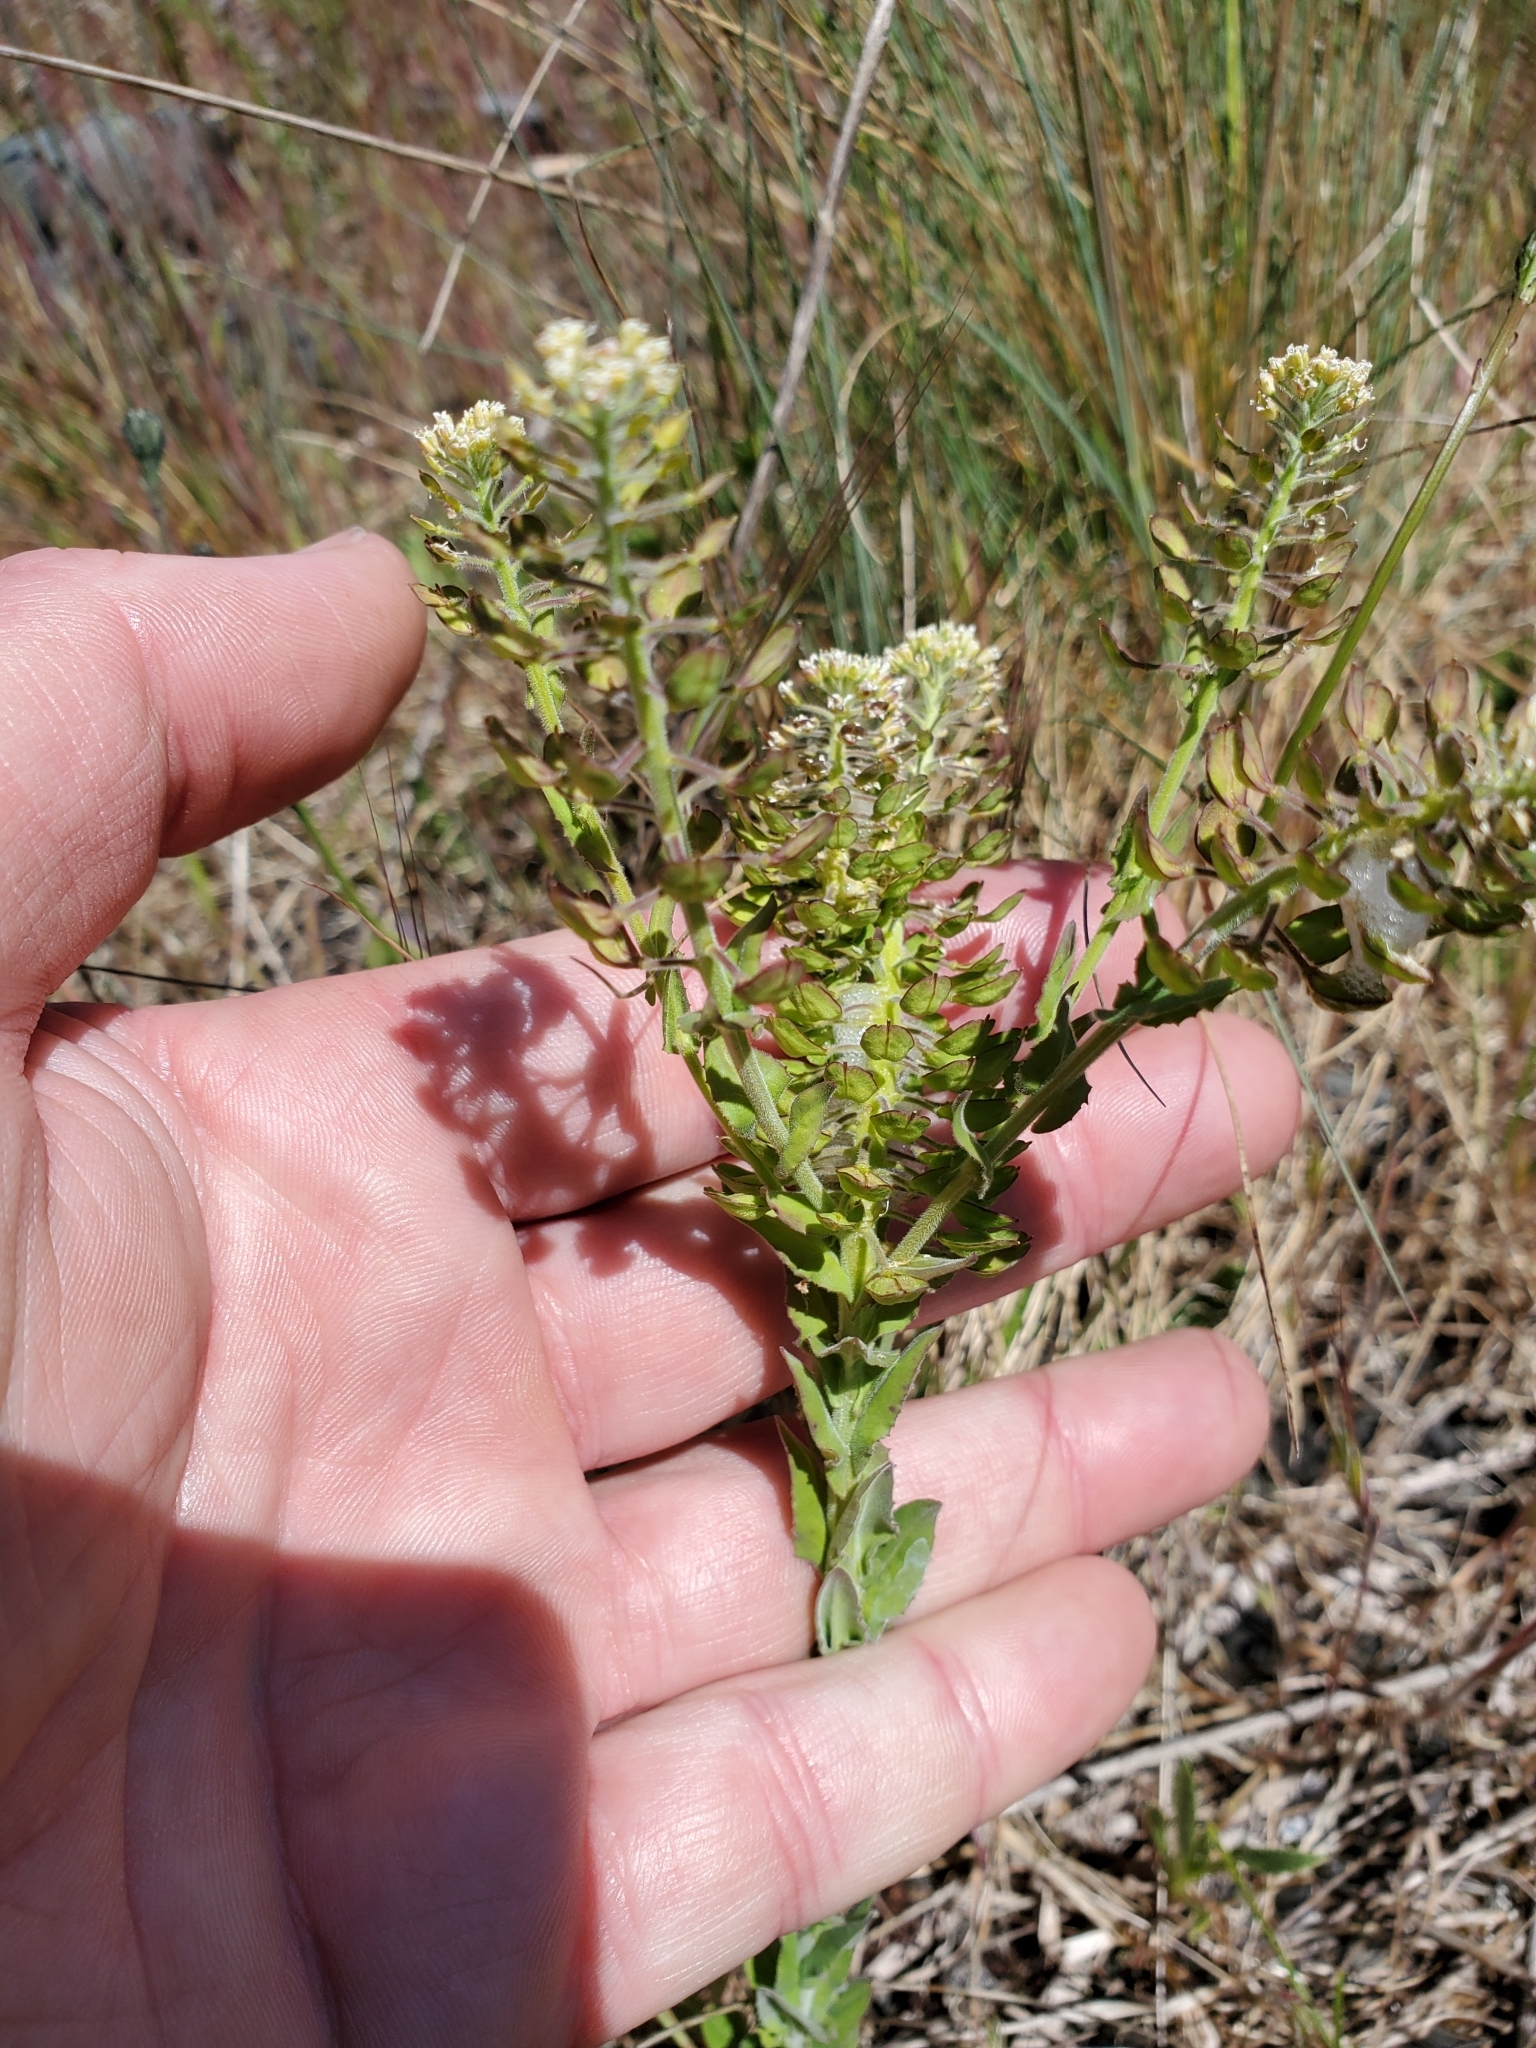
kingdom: Plantae
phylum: Tracheophyta
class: Magnoliopsida
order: Brassicales
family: Brassicaceae
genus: Lepidium
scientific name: Lepidium campestre
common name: Field pepperwort
